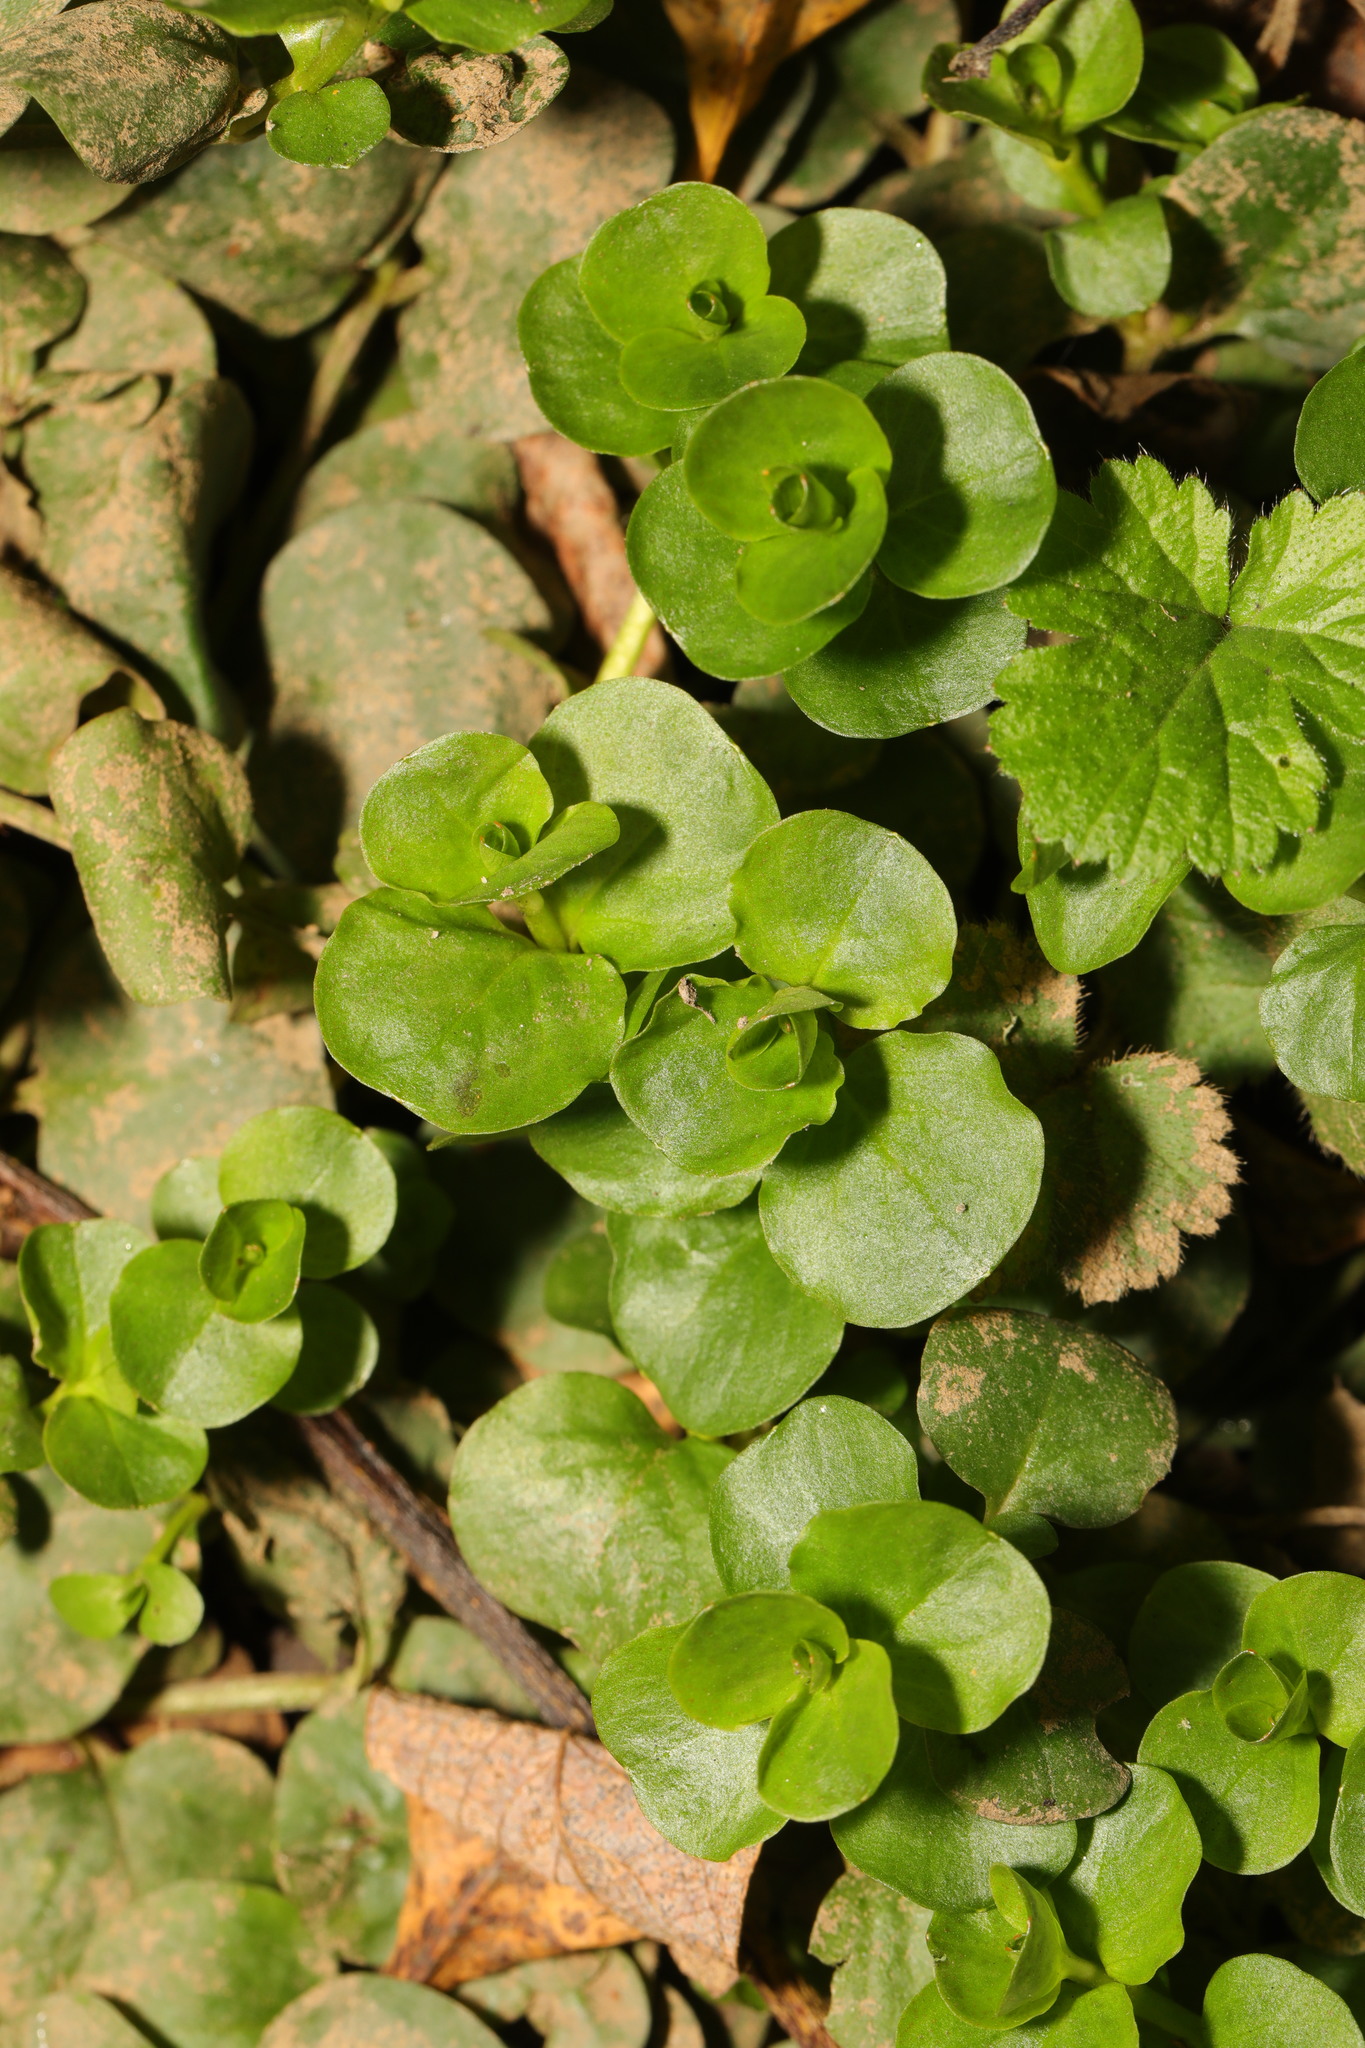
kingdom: Plantae
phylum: Tracheophyta
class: Magnoliopsida
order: Ericales
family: Primulaceae
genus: Lysimachia
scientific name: Lysimachia nummularia
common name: Moneywort
